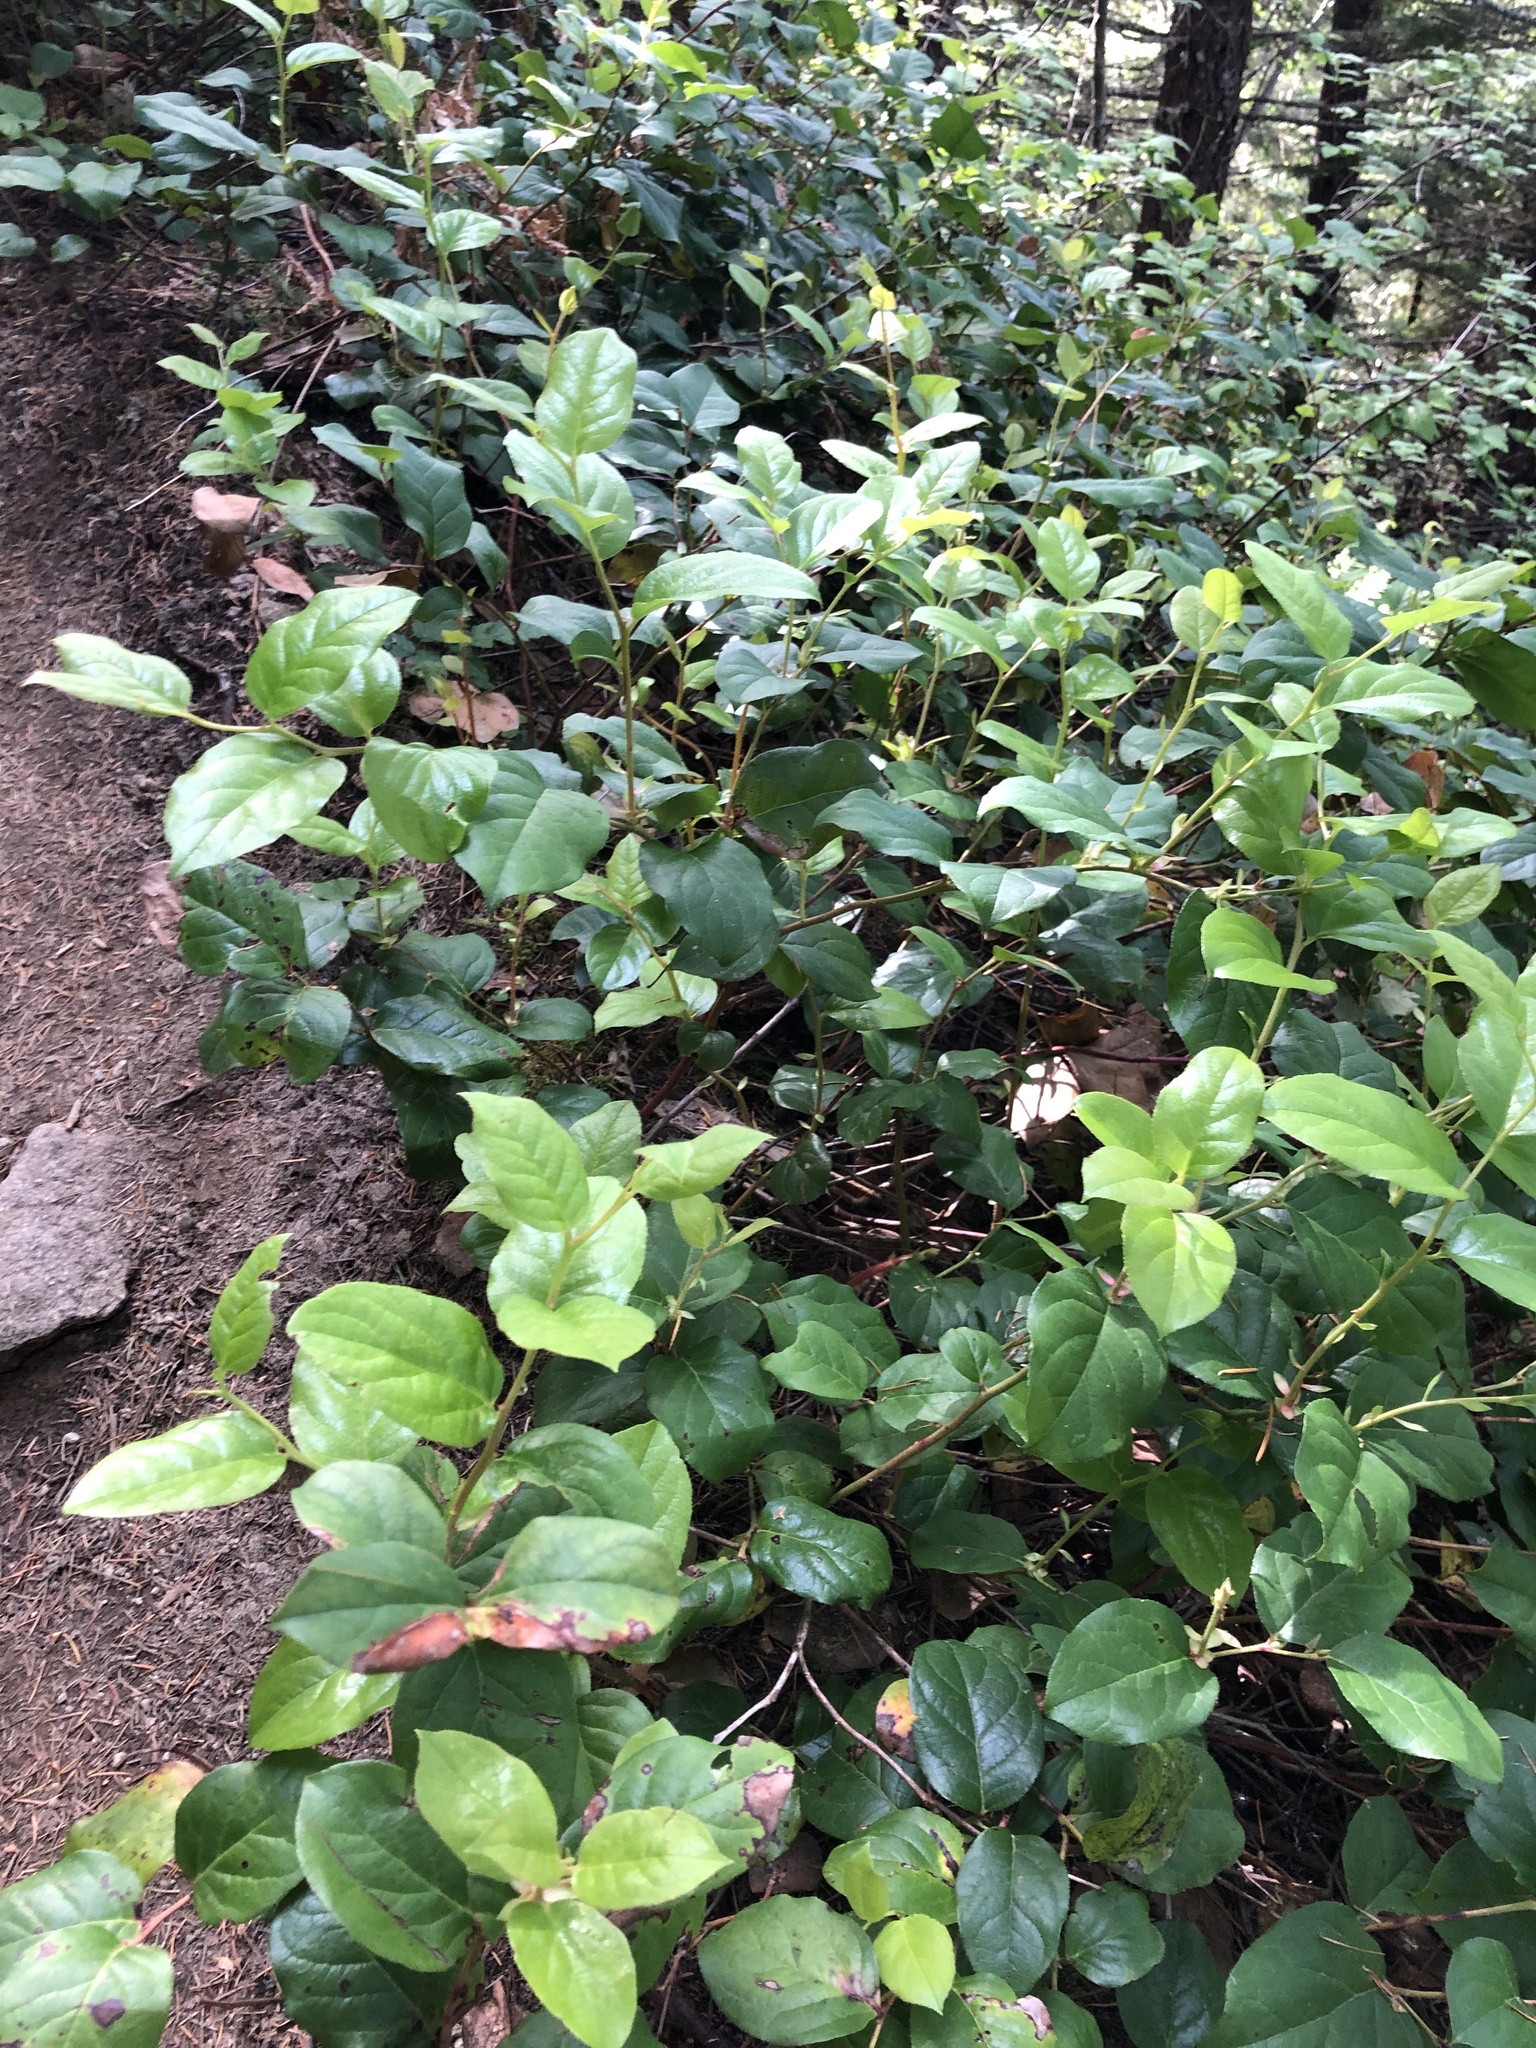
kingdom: Plantae
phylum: Tracheophyta
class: Magnoliopsida
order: Ericales
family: Ericaceae
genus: Gaultheria
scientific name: Gaultheria shallon
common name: Shallon
